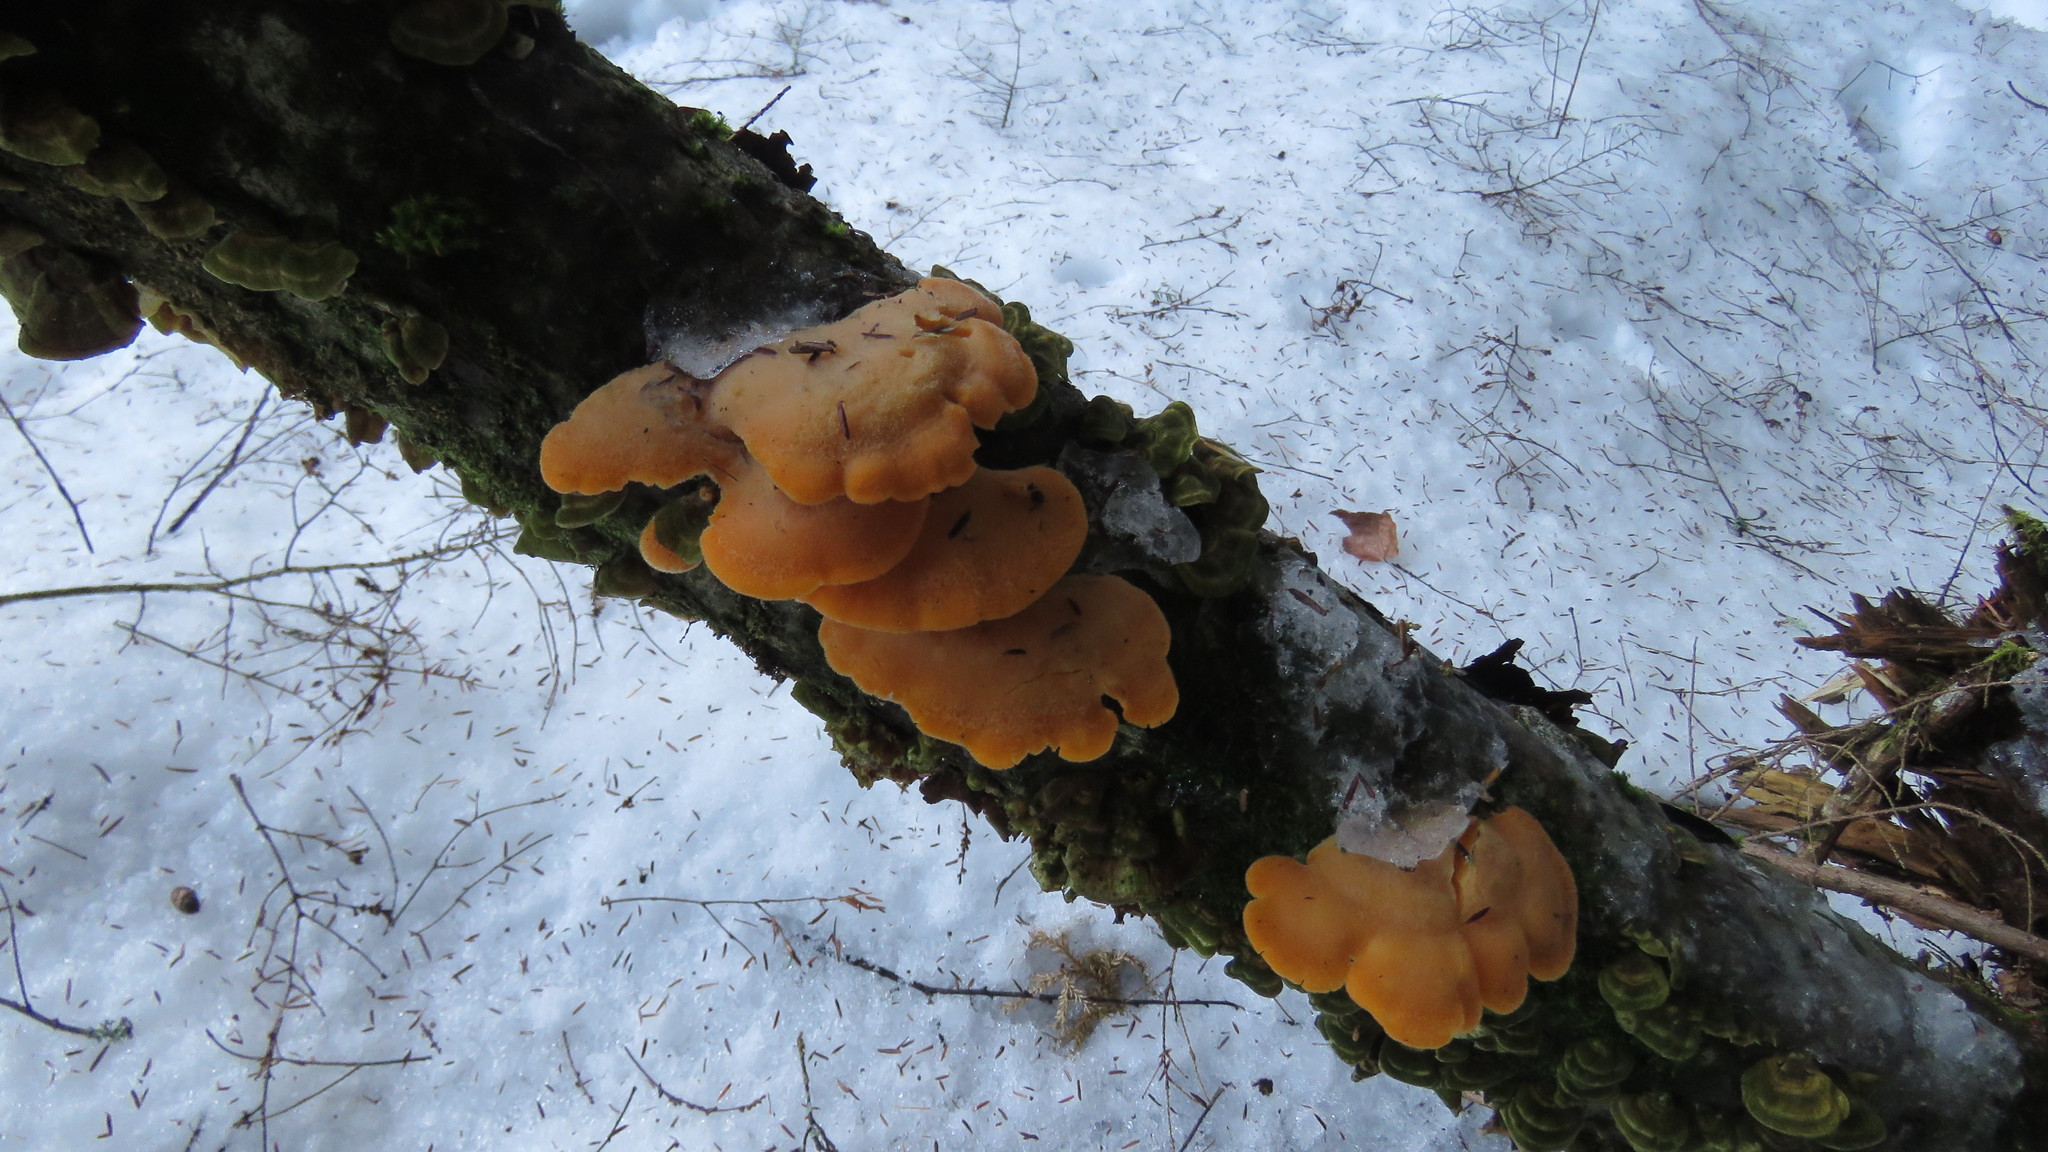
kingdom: Fungi
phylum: Basidiomycota
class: Agaricomycetes
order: Agaricales
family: Phyllotopsidaceae
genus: Phyllotopsis
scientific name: Phyllotopsis nidulans
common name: Orange mock oyster
